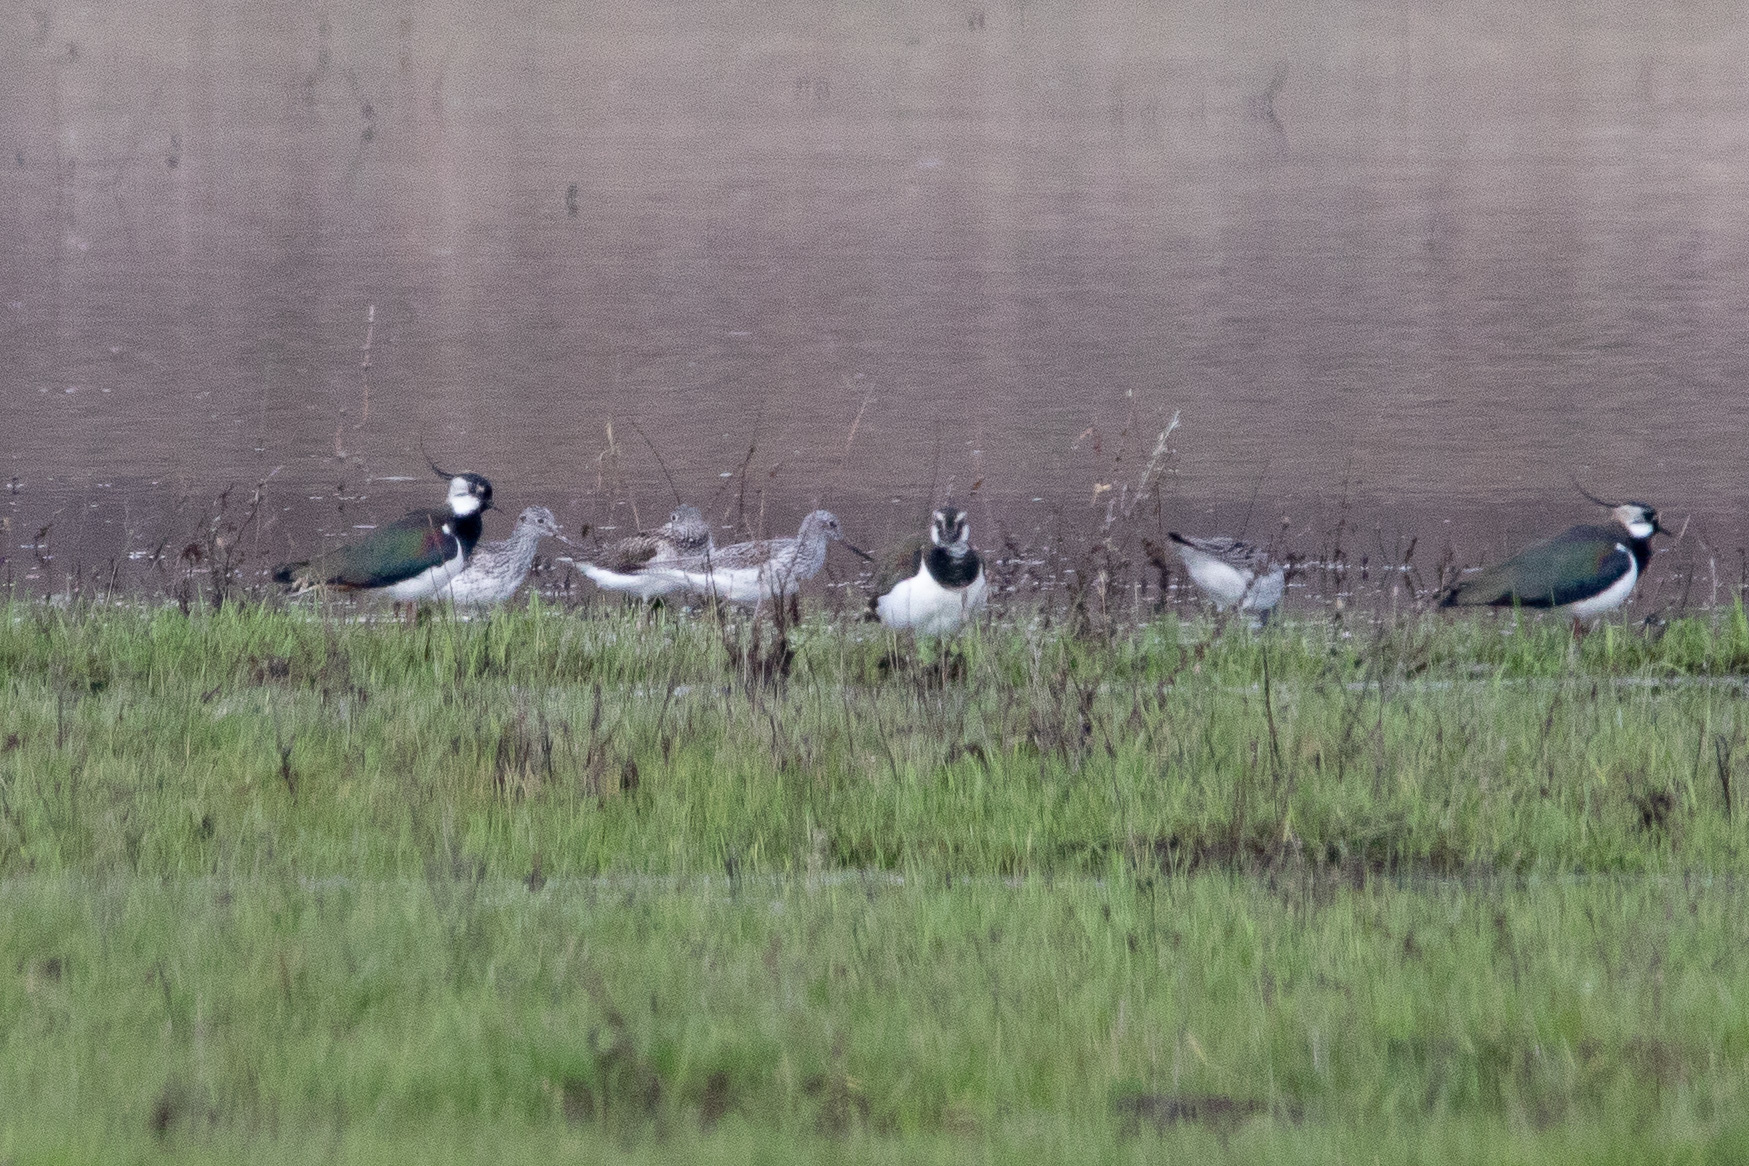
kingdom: Animalia
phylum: Chordata
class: Aves
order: Charadriiformes
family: Scolopacidae
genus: Tringa
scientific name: Tringa nebularia
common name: Common greenshank
